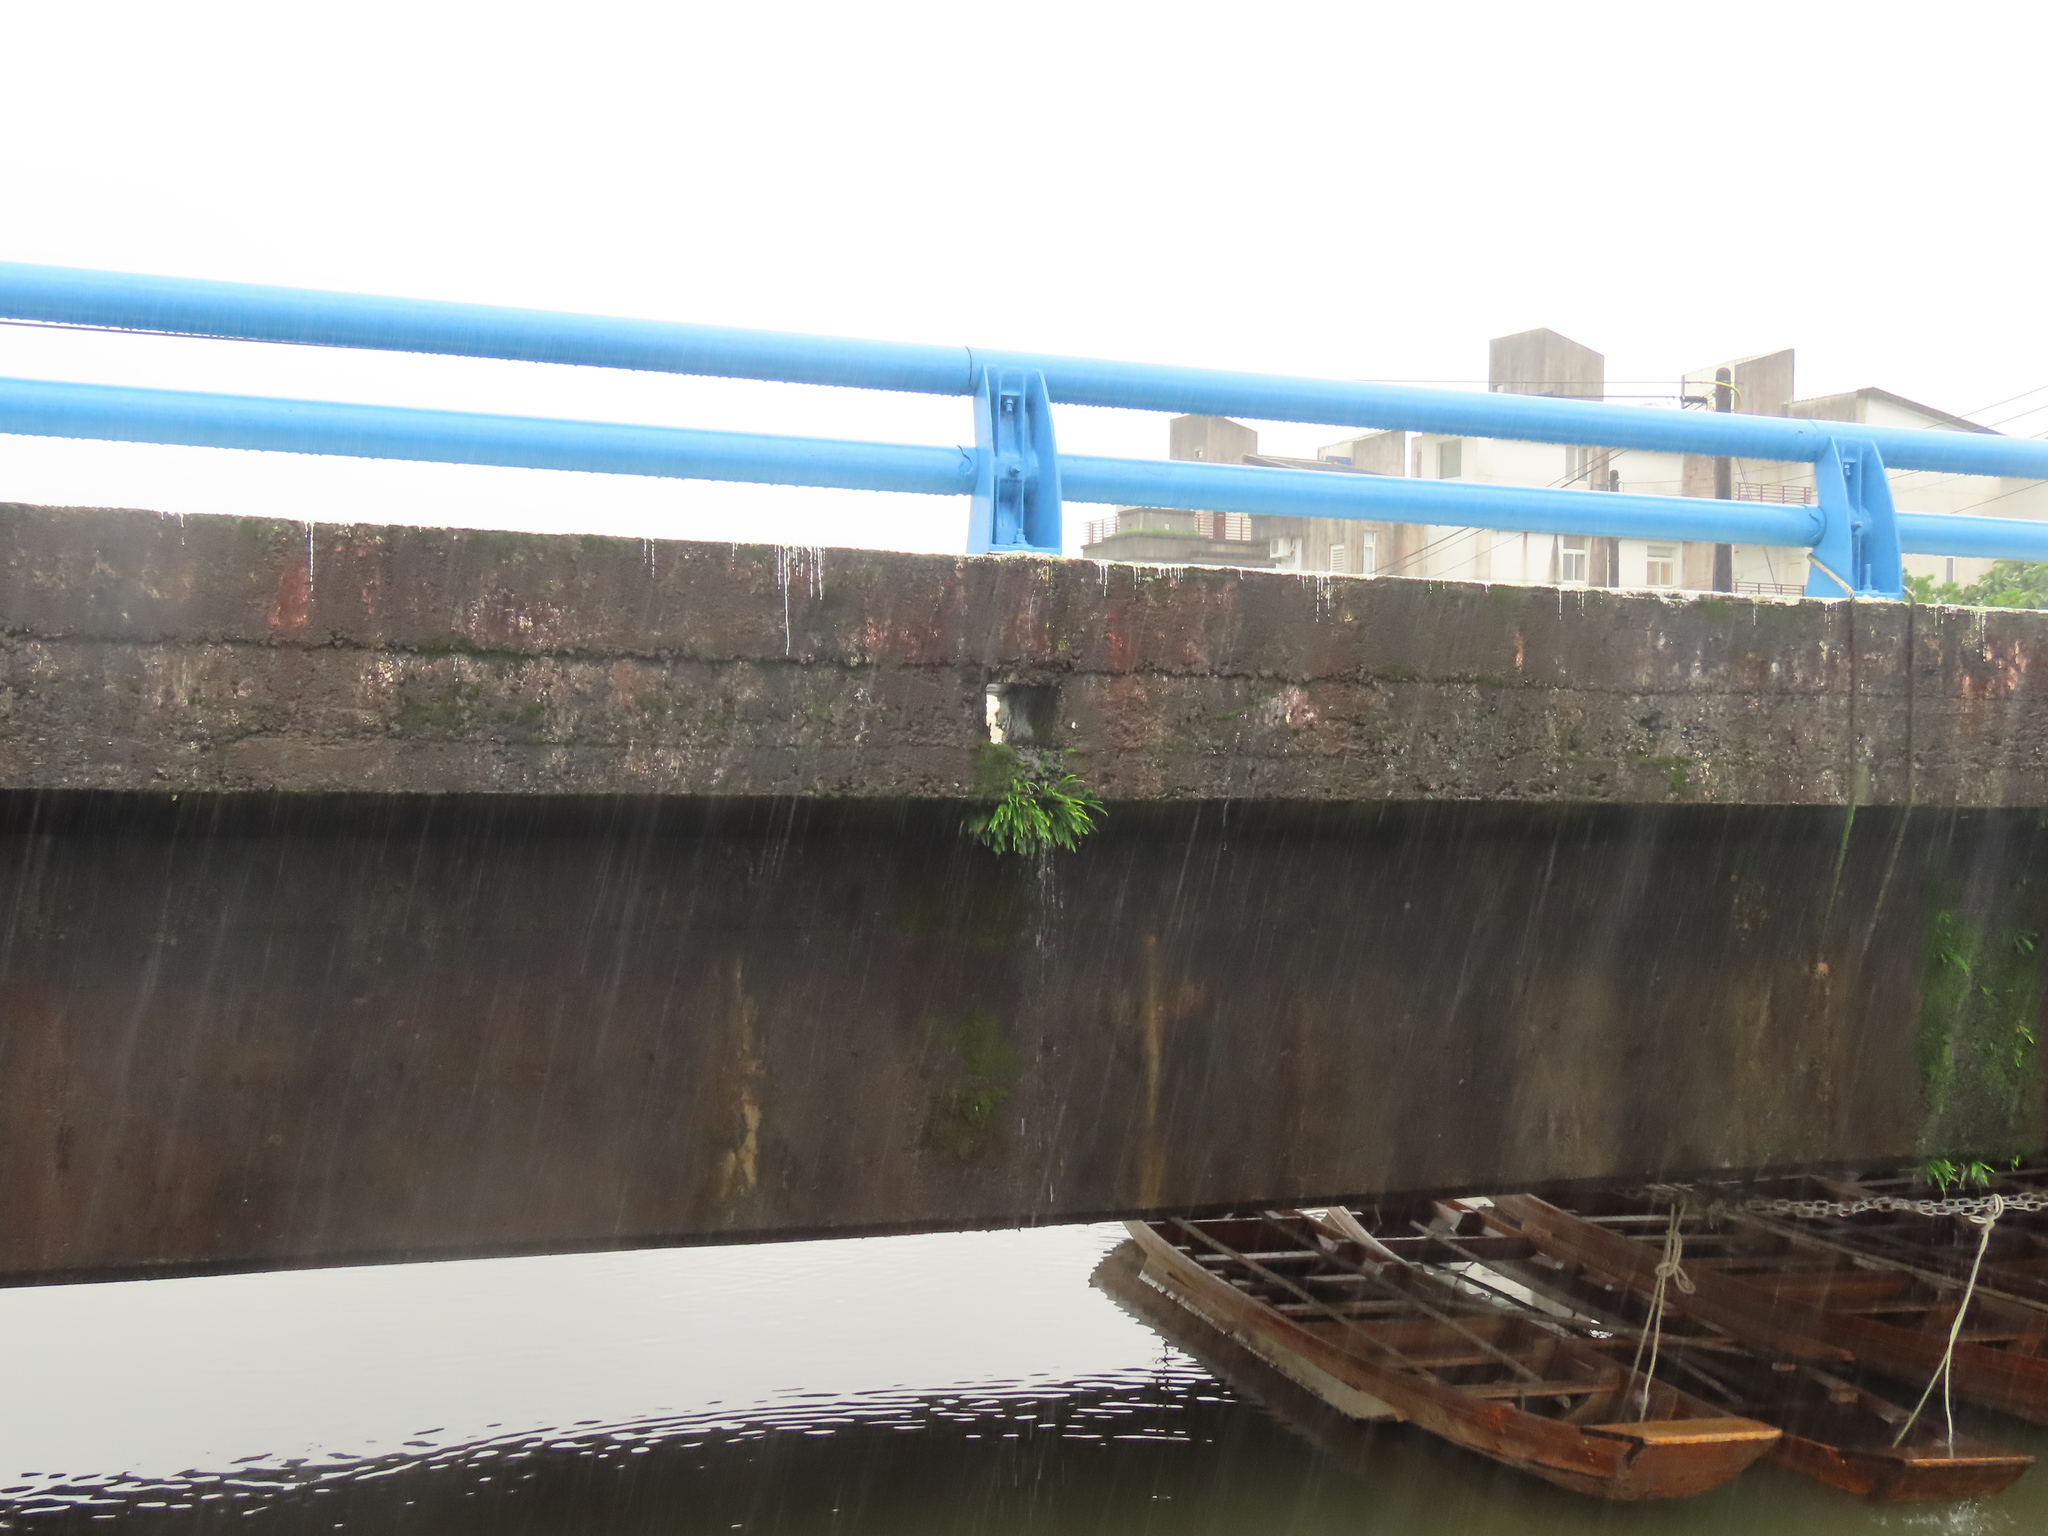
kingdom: Plantae
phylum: Tracheophyta
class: Polypodiopsida
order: Polypodiales
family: Polypodiaceae
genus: Lepisorus
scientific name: Lepisorus thunbergianus
